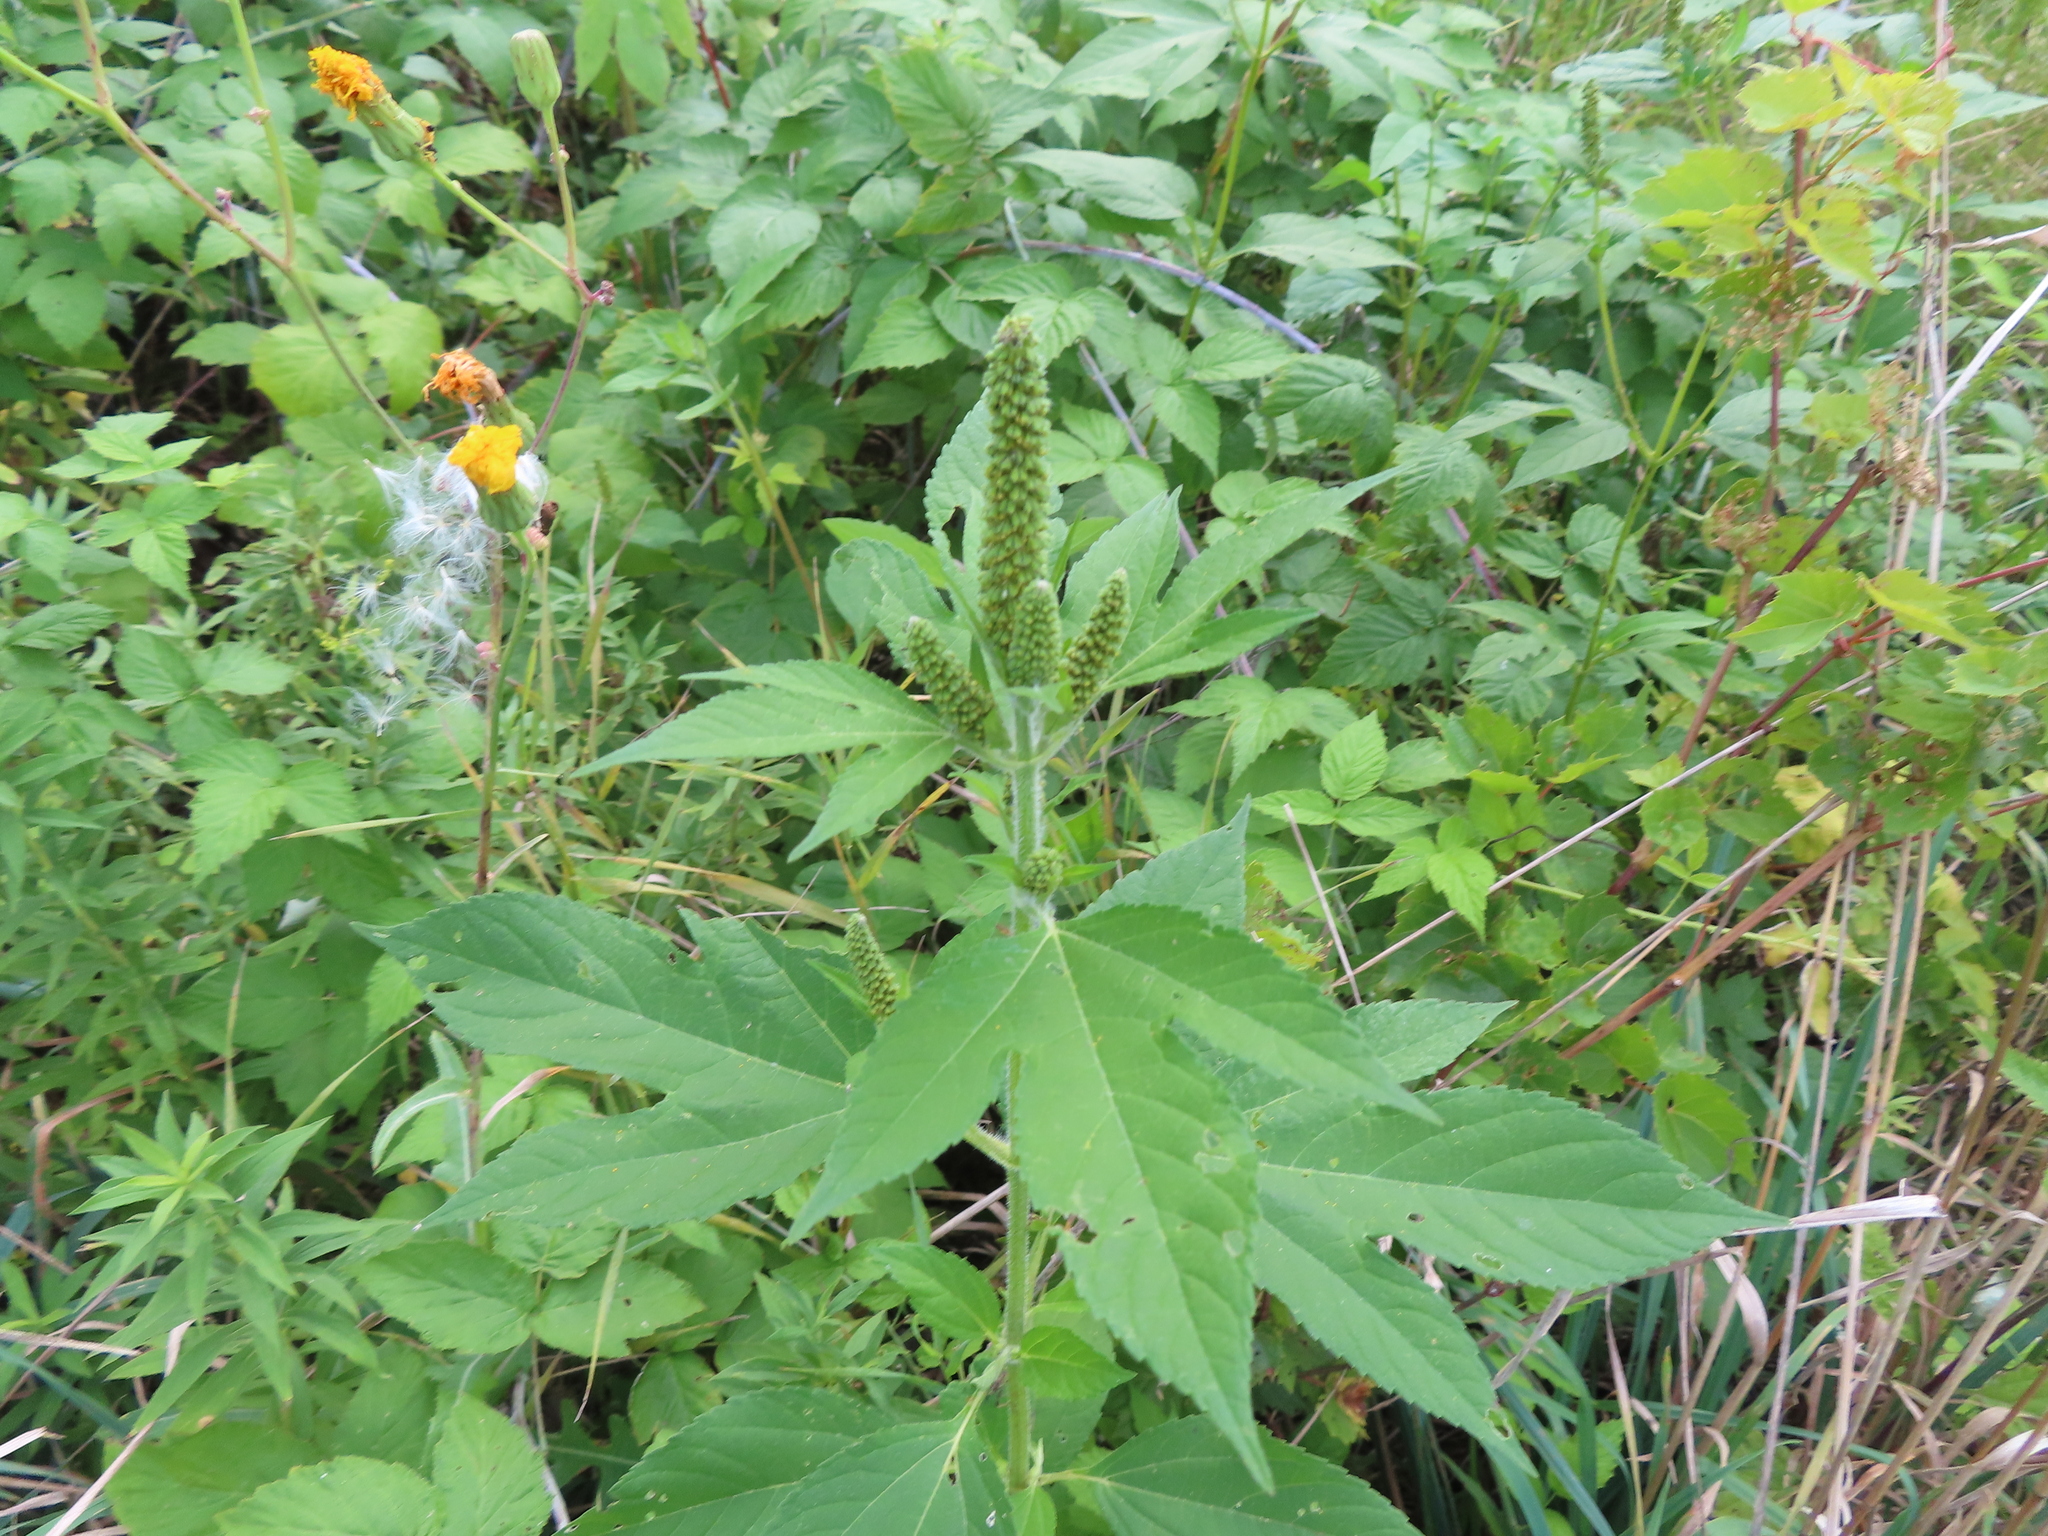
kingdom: Plantae
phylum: Tracheophyta
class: Magnoliopsida
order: Asterales
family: Asteraceae
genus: Ambrosia
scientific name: Ambrosia trifida
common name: Giant ragweed
